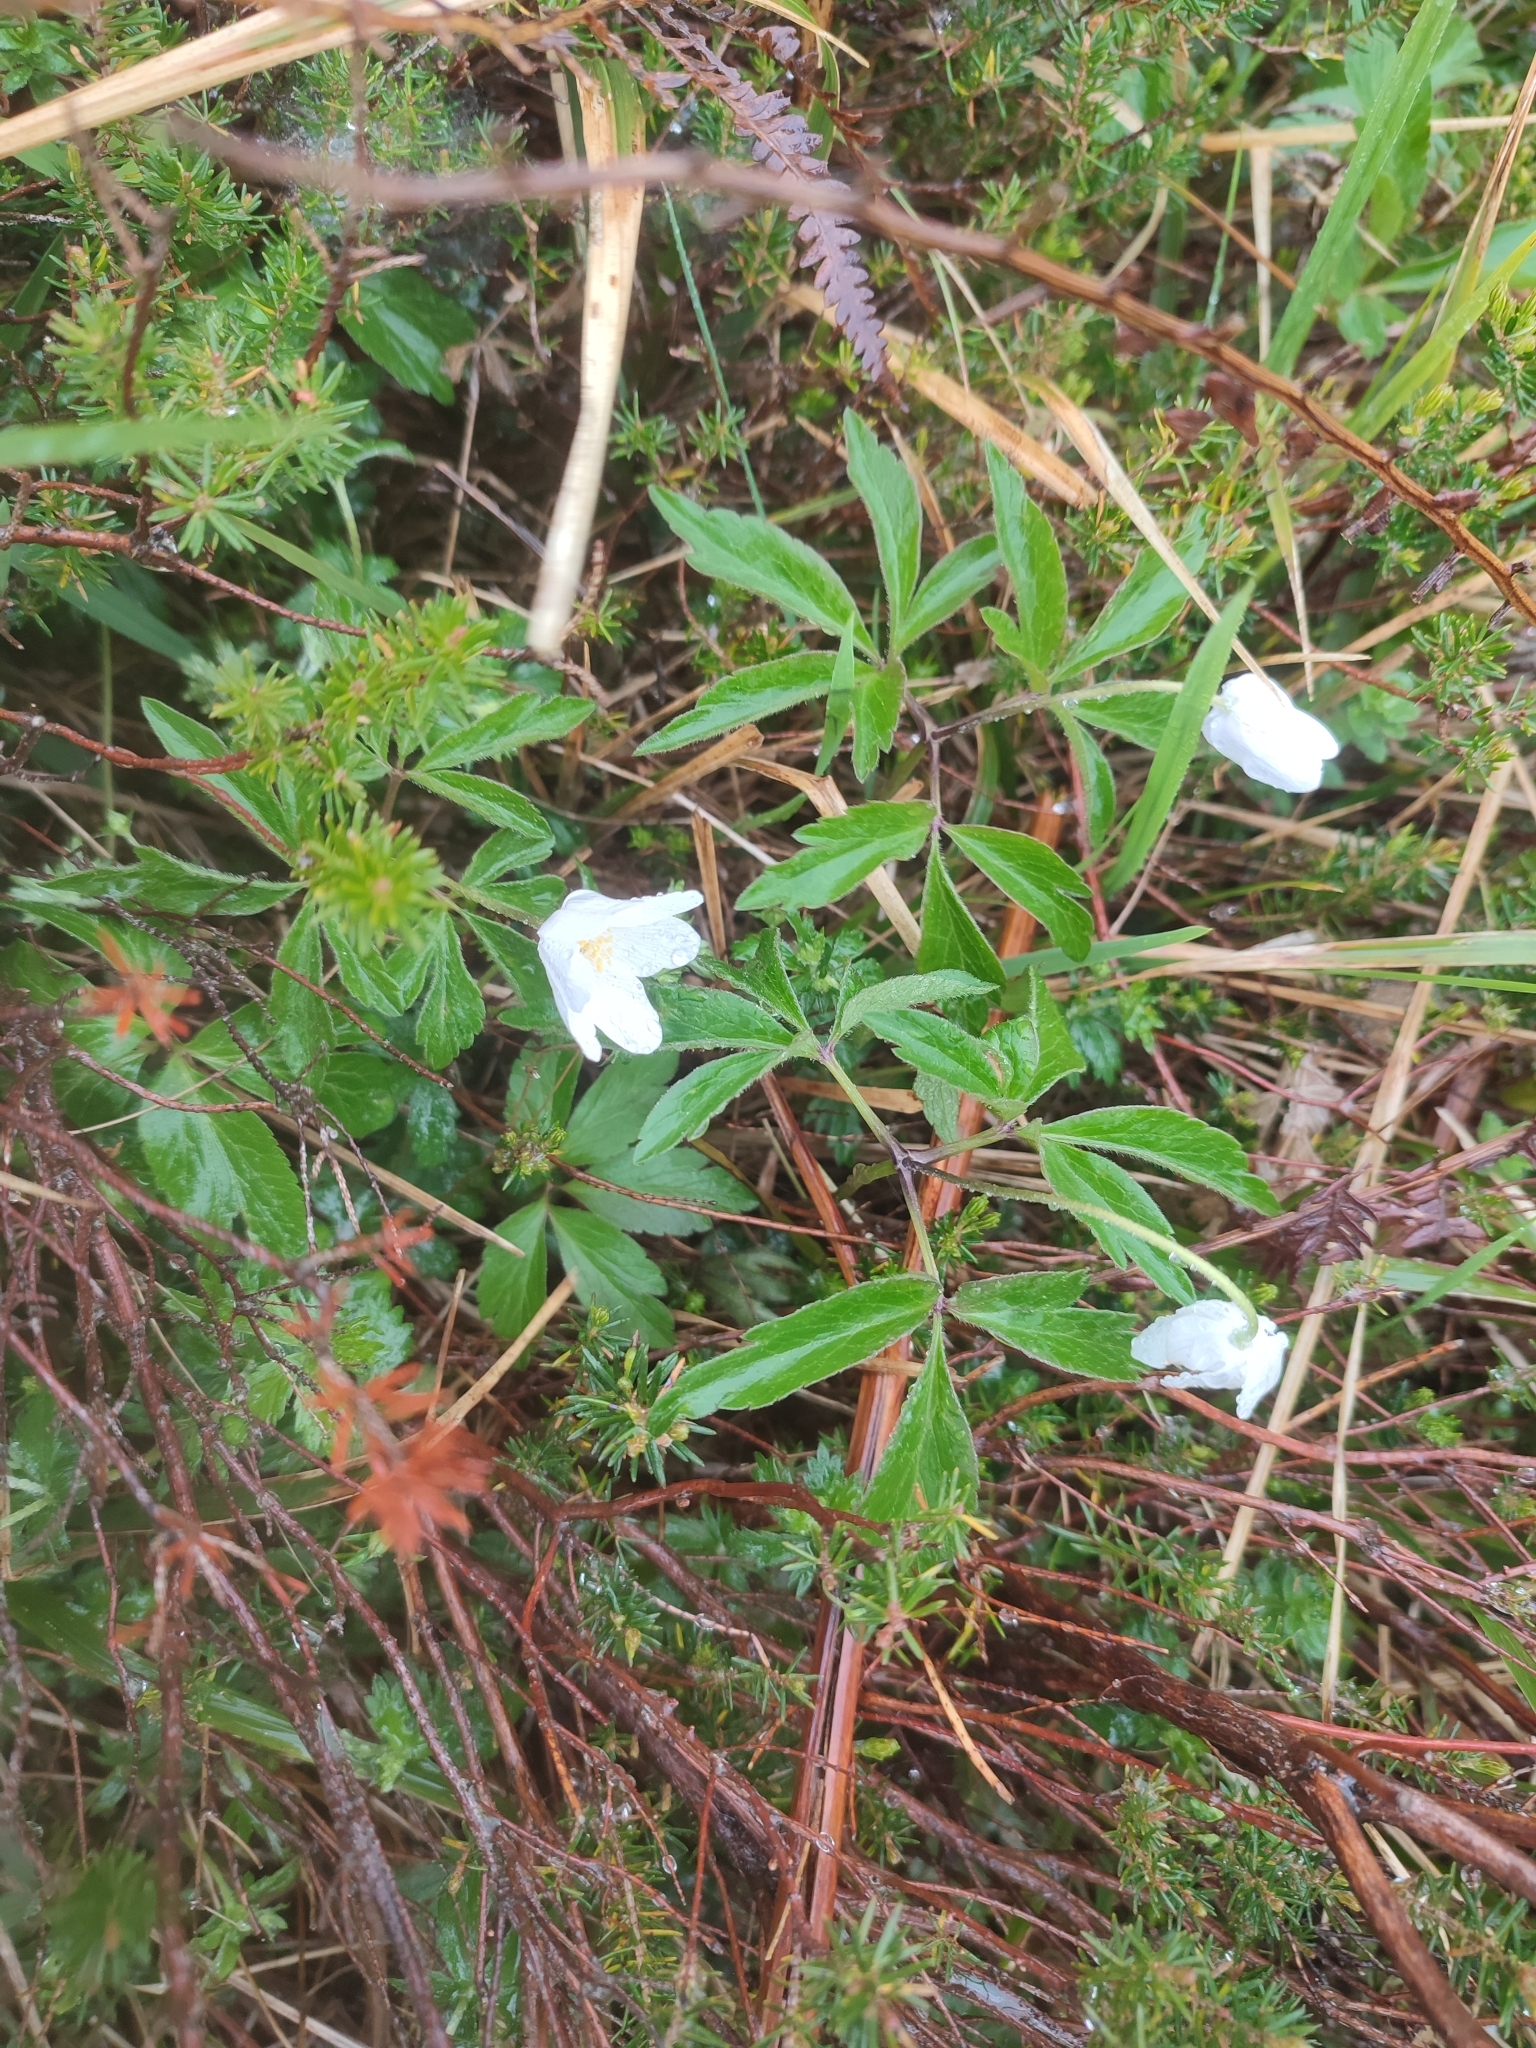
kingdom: Plantae
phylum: Tracheophyta
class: Magnoliopsida
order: Ranunculales
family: Ranunculaceae
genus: Anemone
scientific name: Anemone nemorosa
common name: Wood anemone
